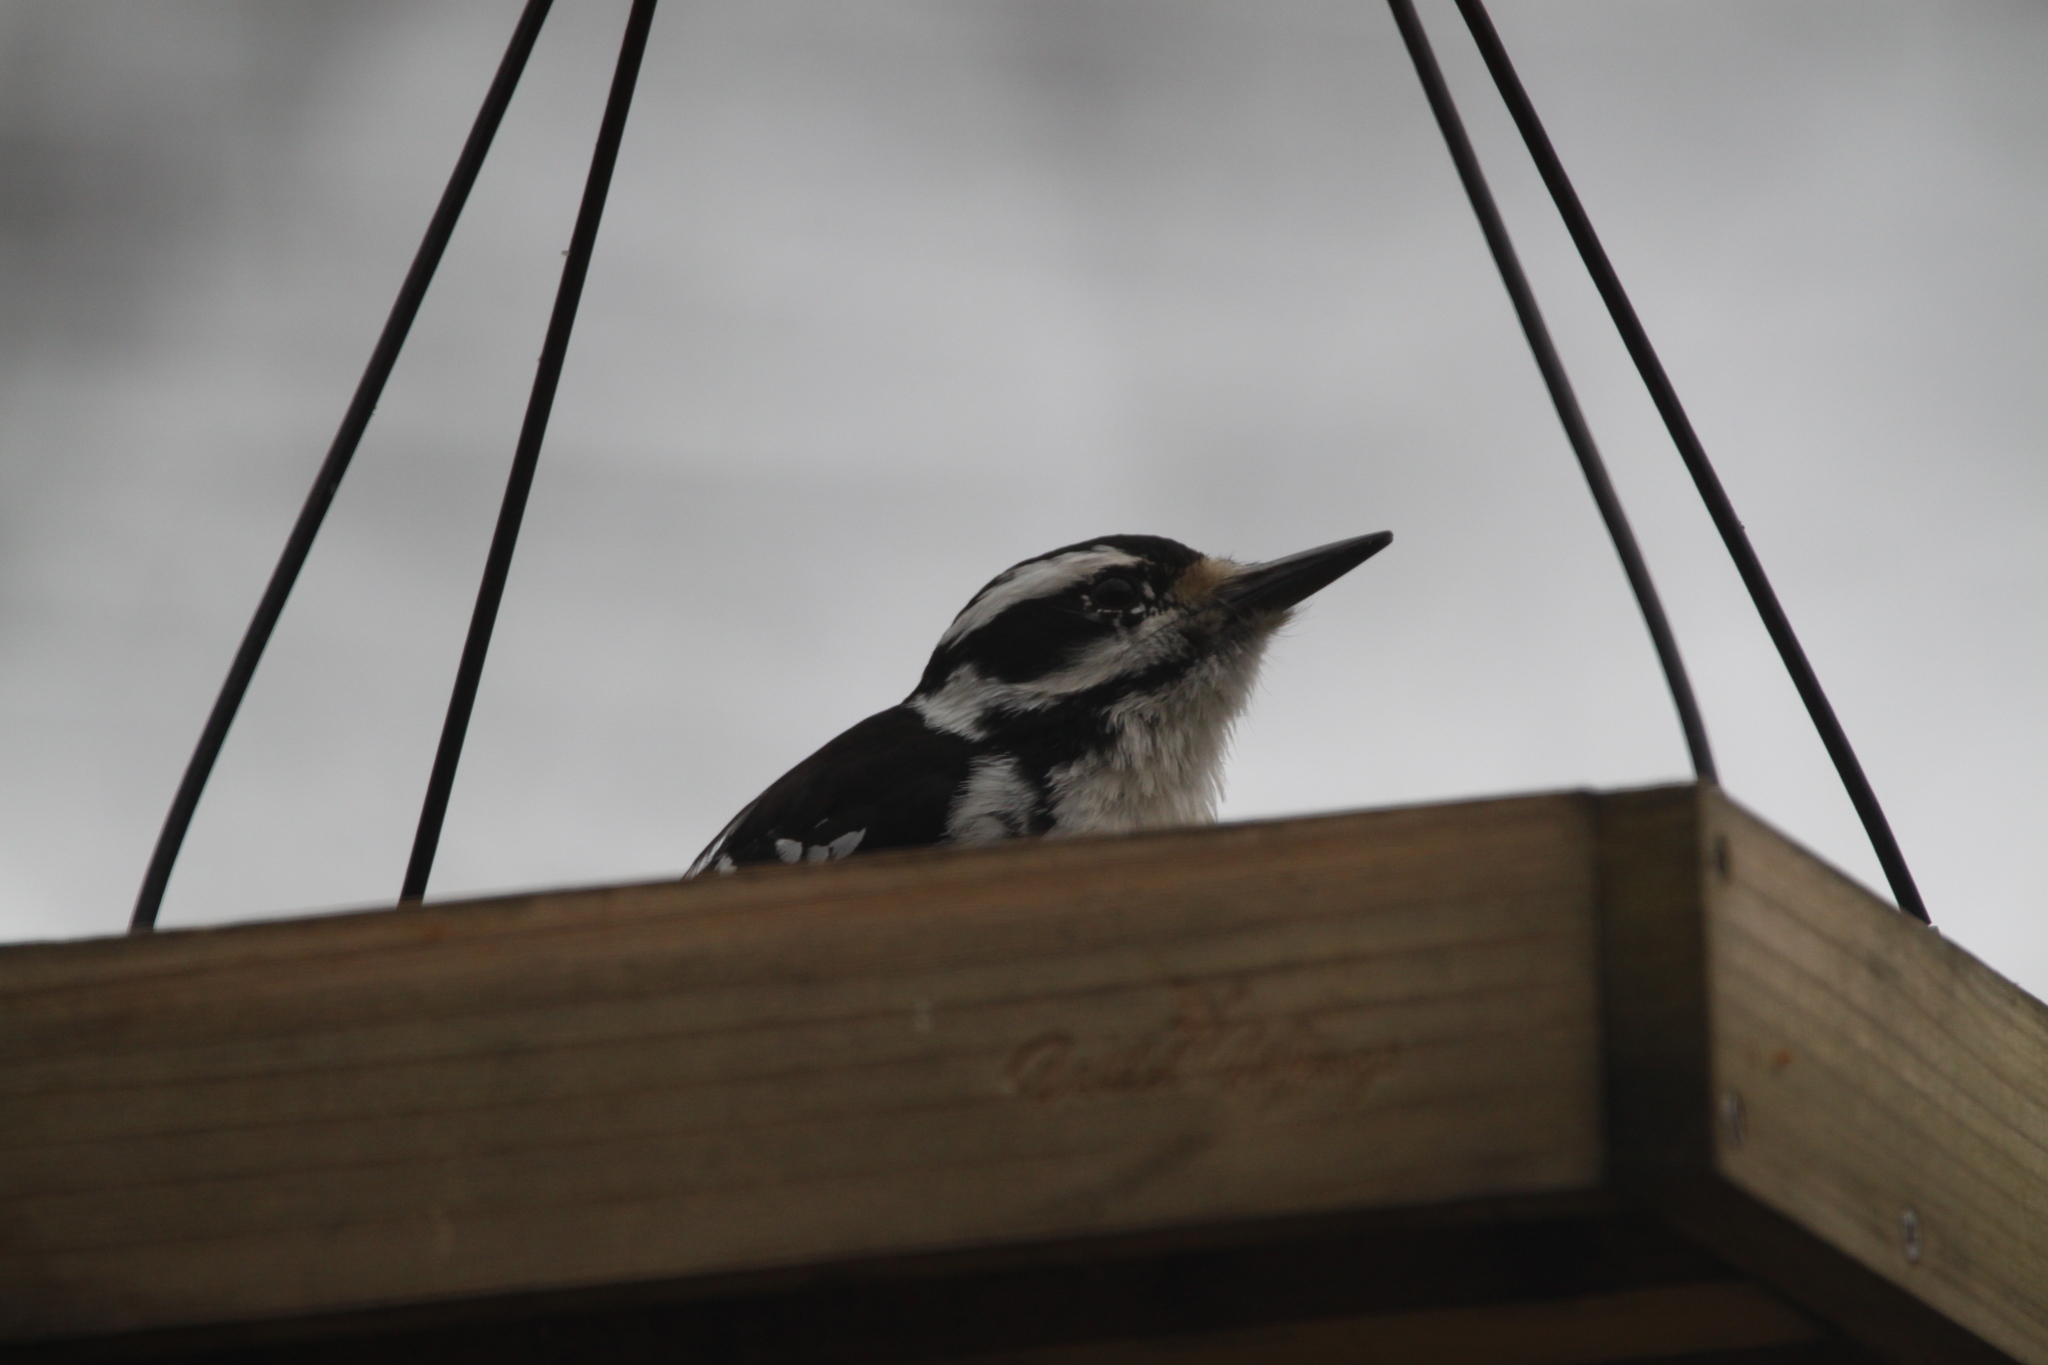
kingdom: Animalia
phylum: Chordata
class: Aves
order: Piciformes
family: Picidae
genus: Leuconotopicus
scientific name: Leuconotopicus villosus
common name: Hairy woodpecker
